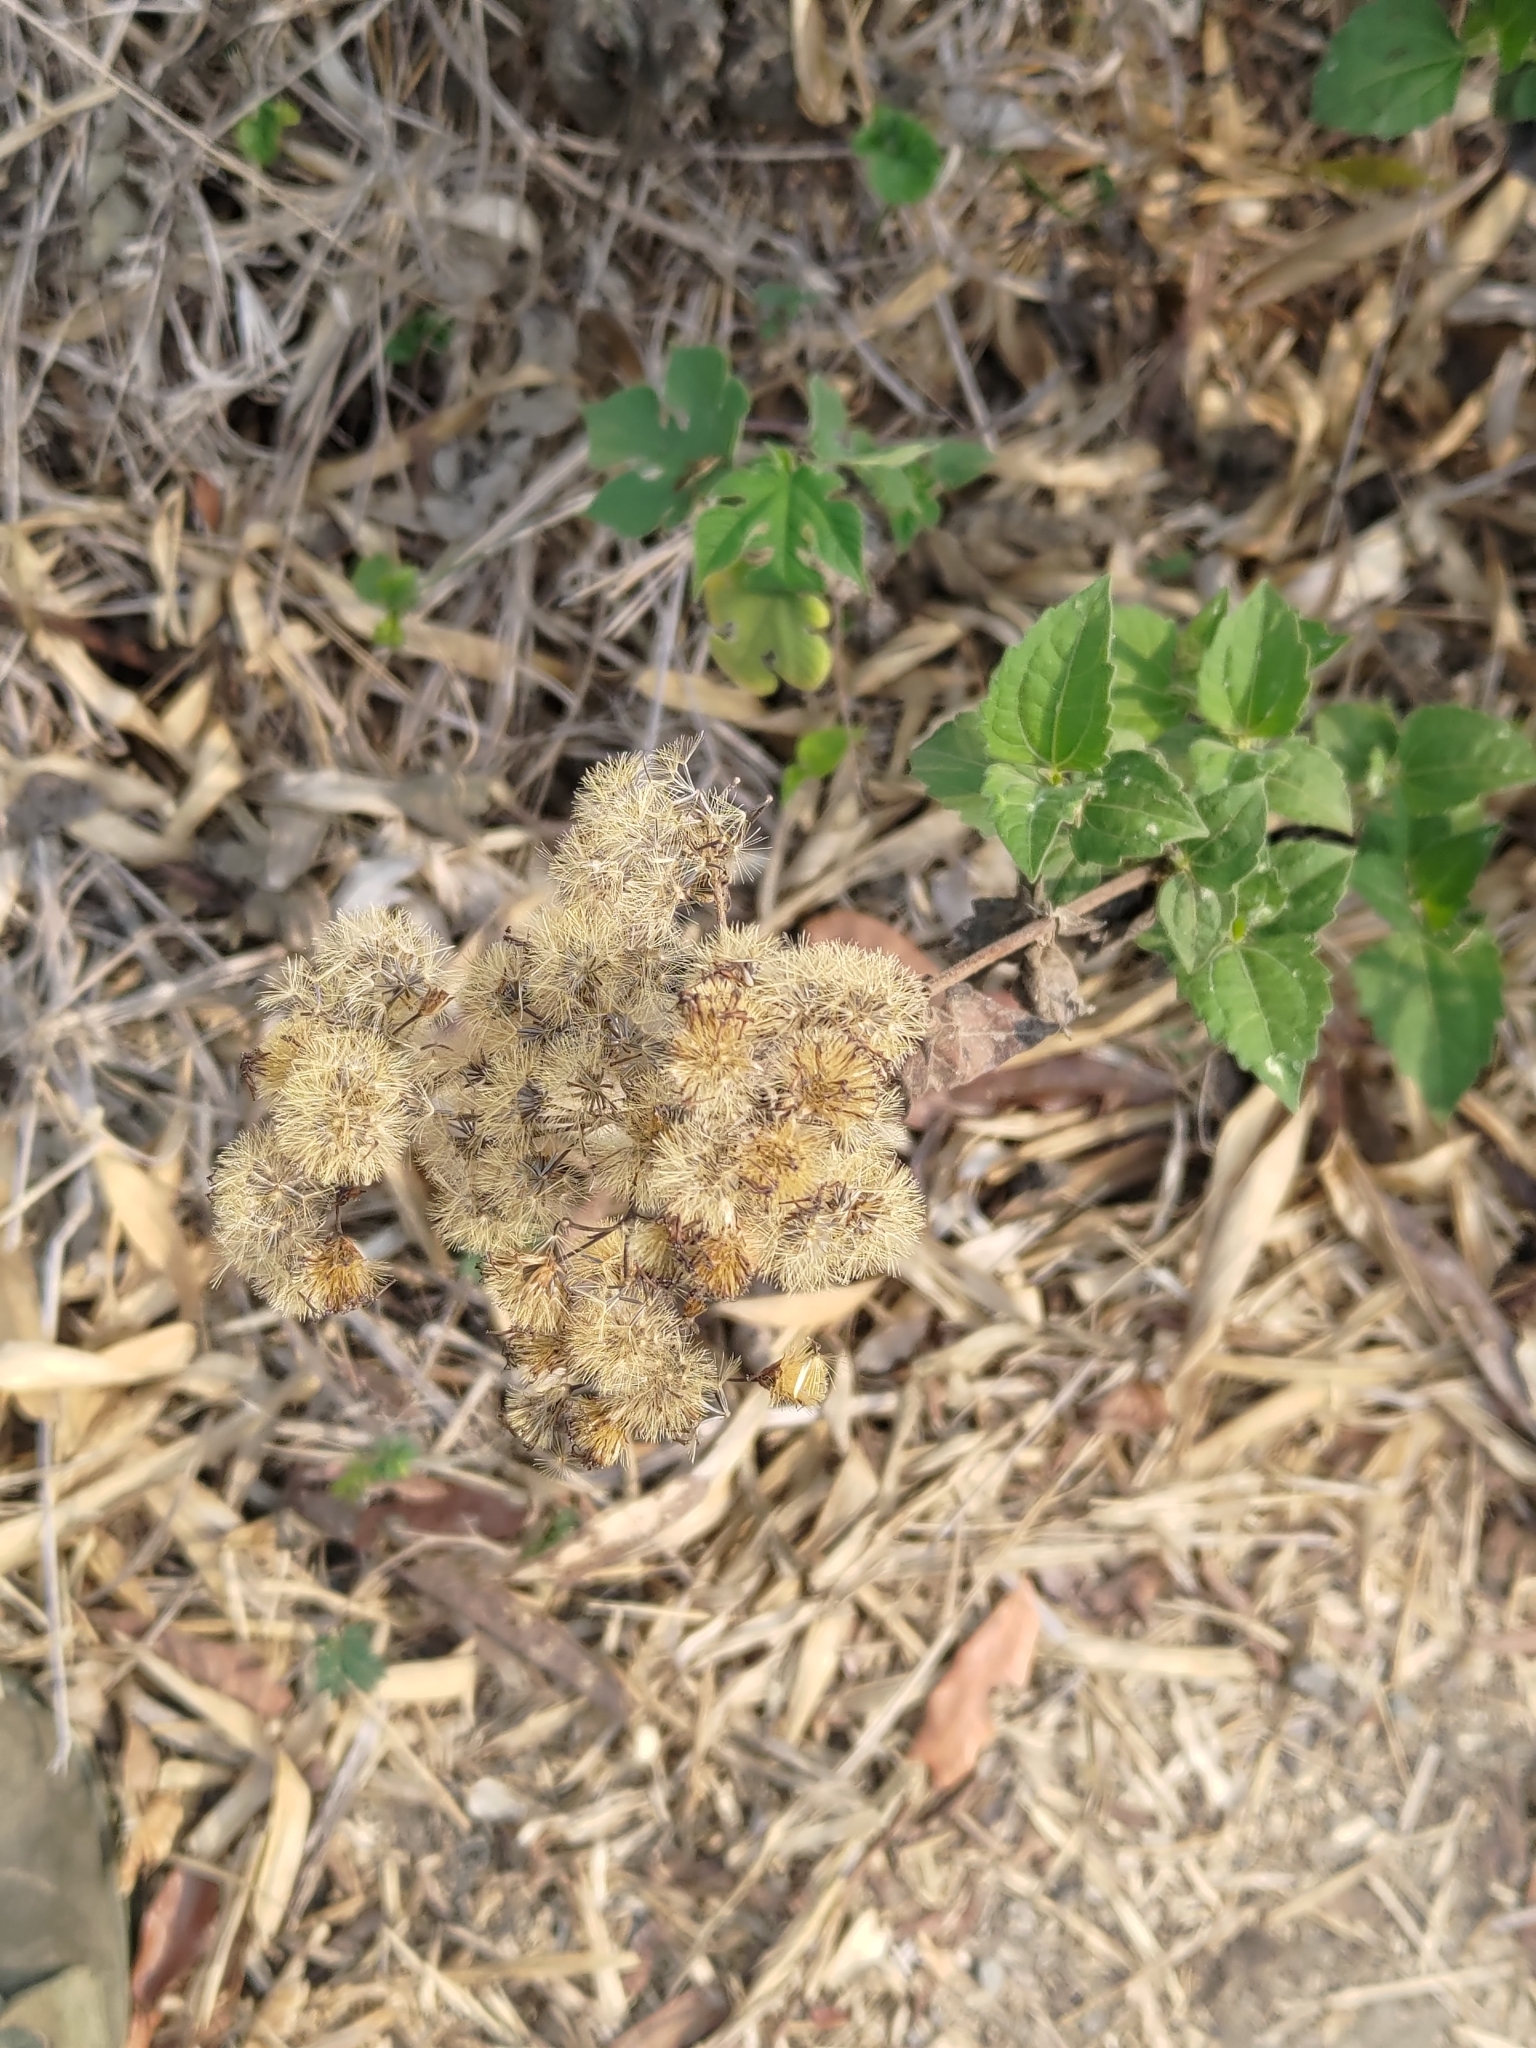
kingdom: Plantae
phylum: Tracheophyta
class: Magnoliopsida
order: Asterales
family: Asteraceae
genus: Chromolaena
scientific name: Chromolaena odorata
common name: Siamweed
